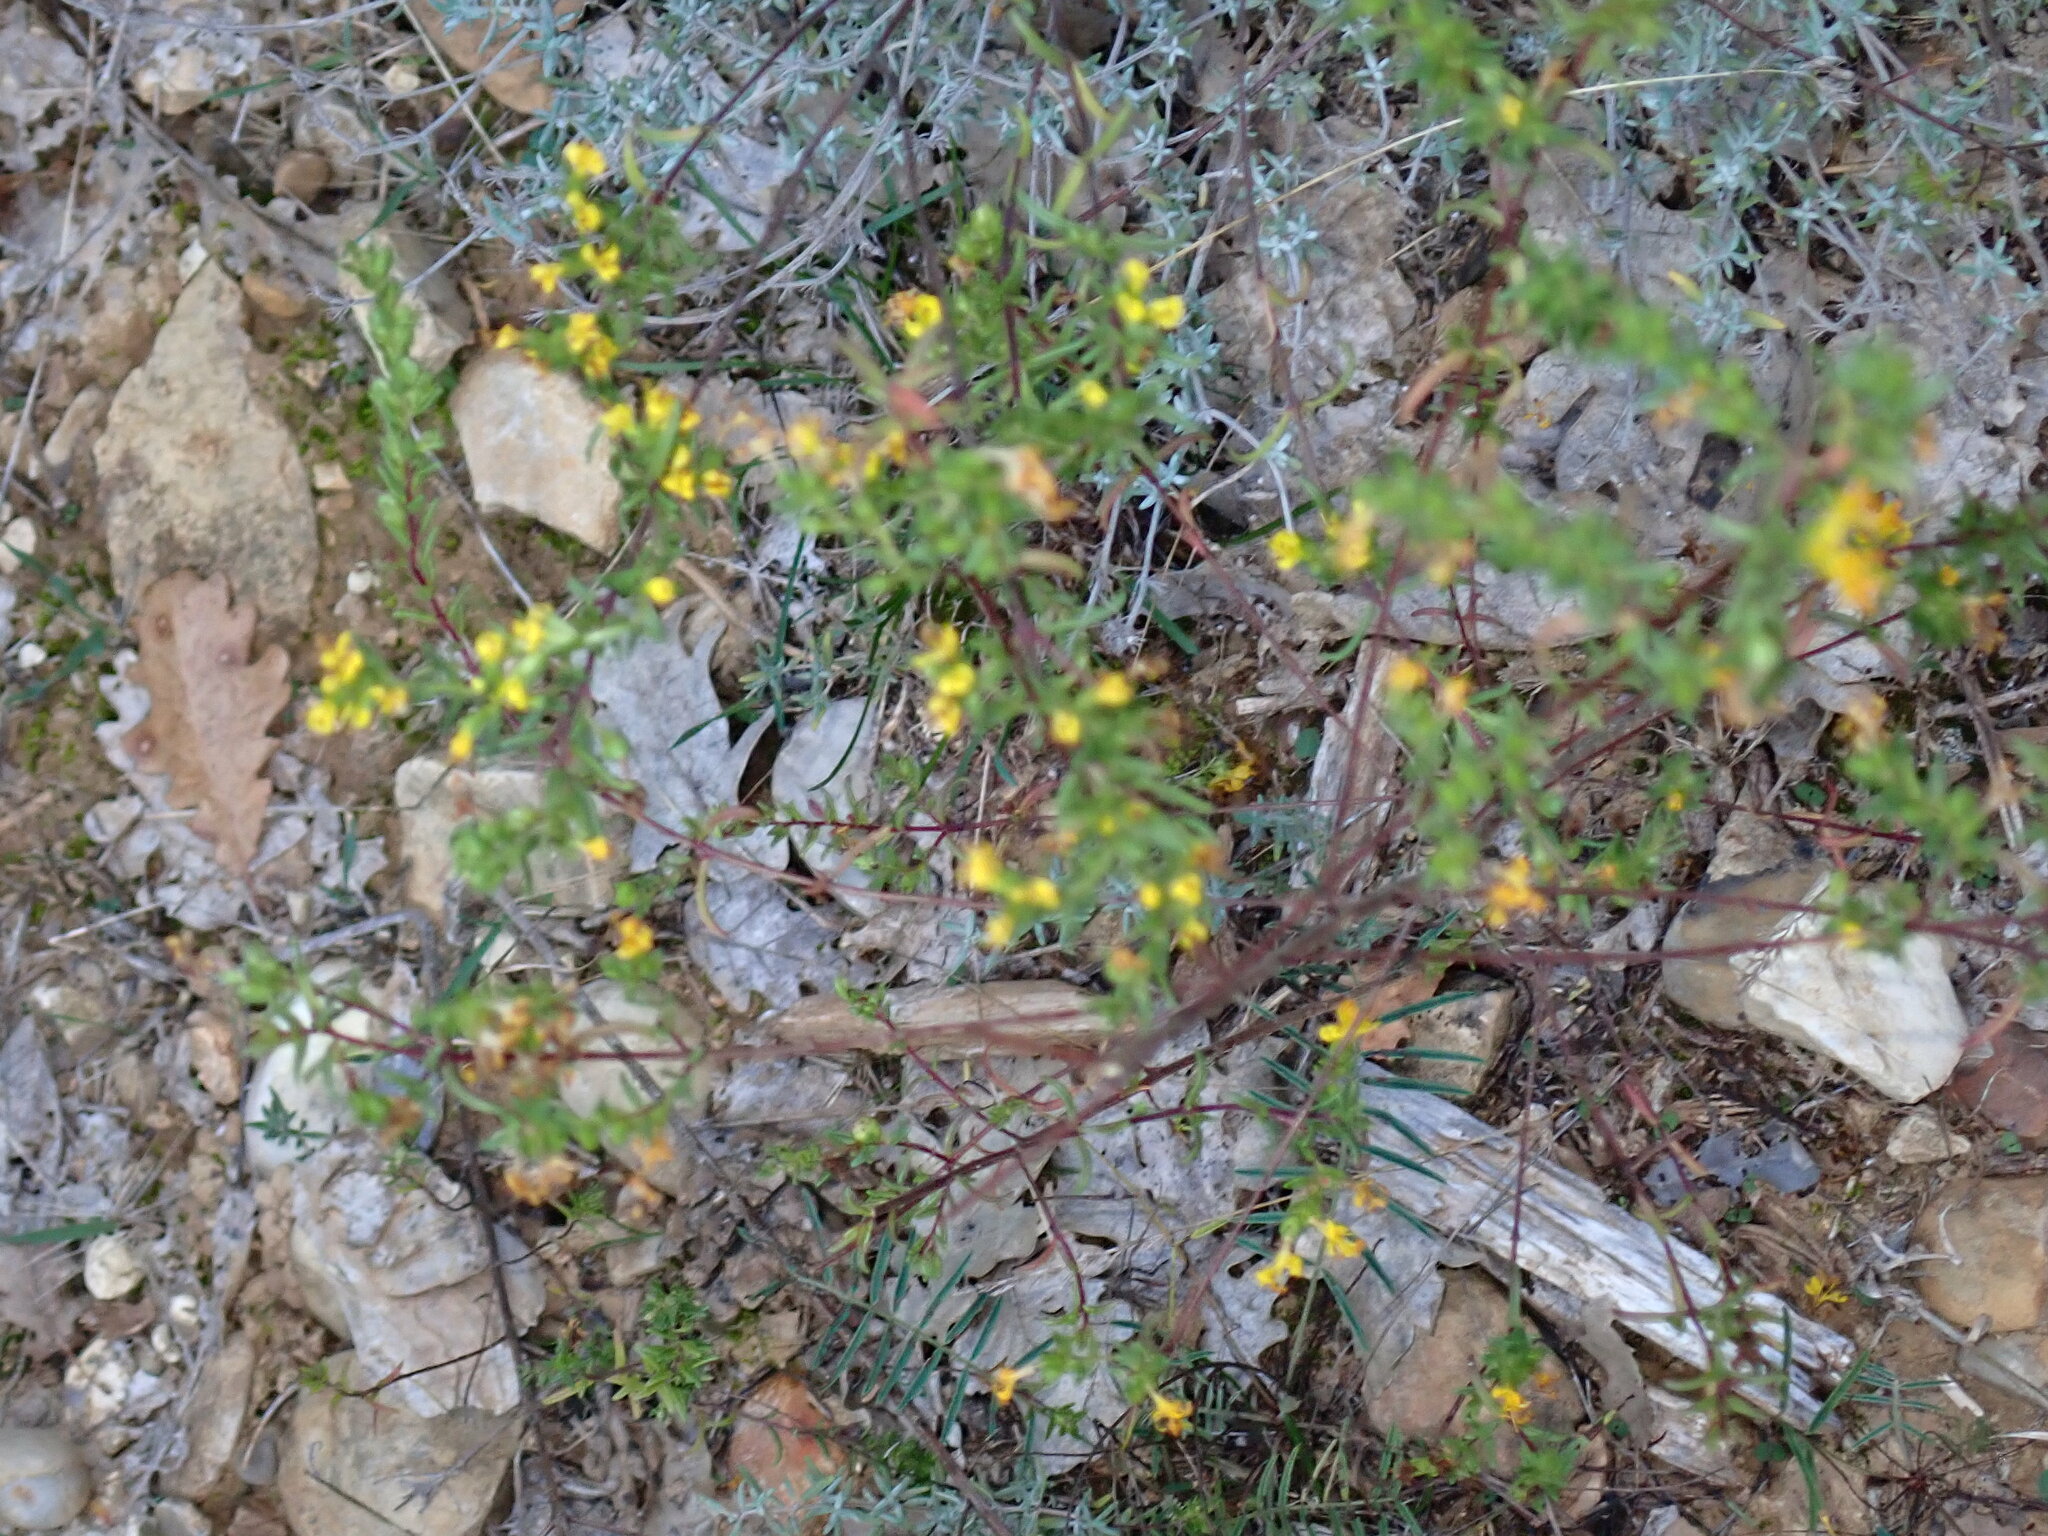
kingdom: Plantae
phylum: Tracheophyta
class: Magnoliopsida
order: Lamiales
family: Orobanchaceae
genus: Odontites
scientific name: Odontites luteus
